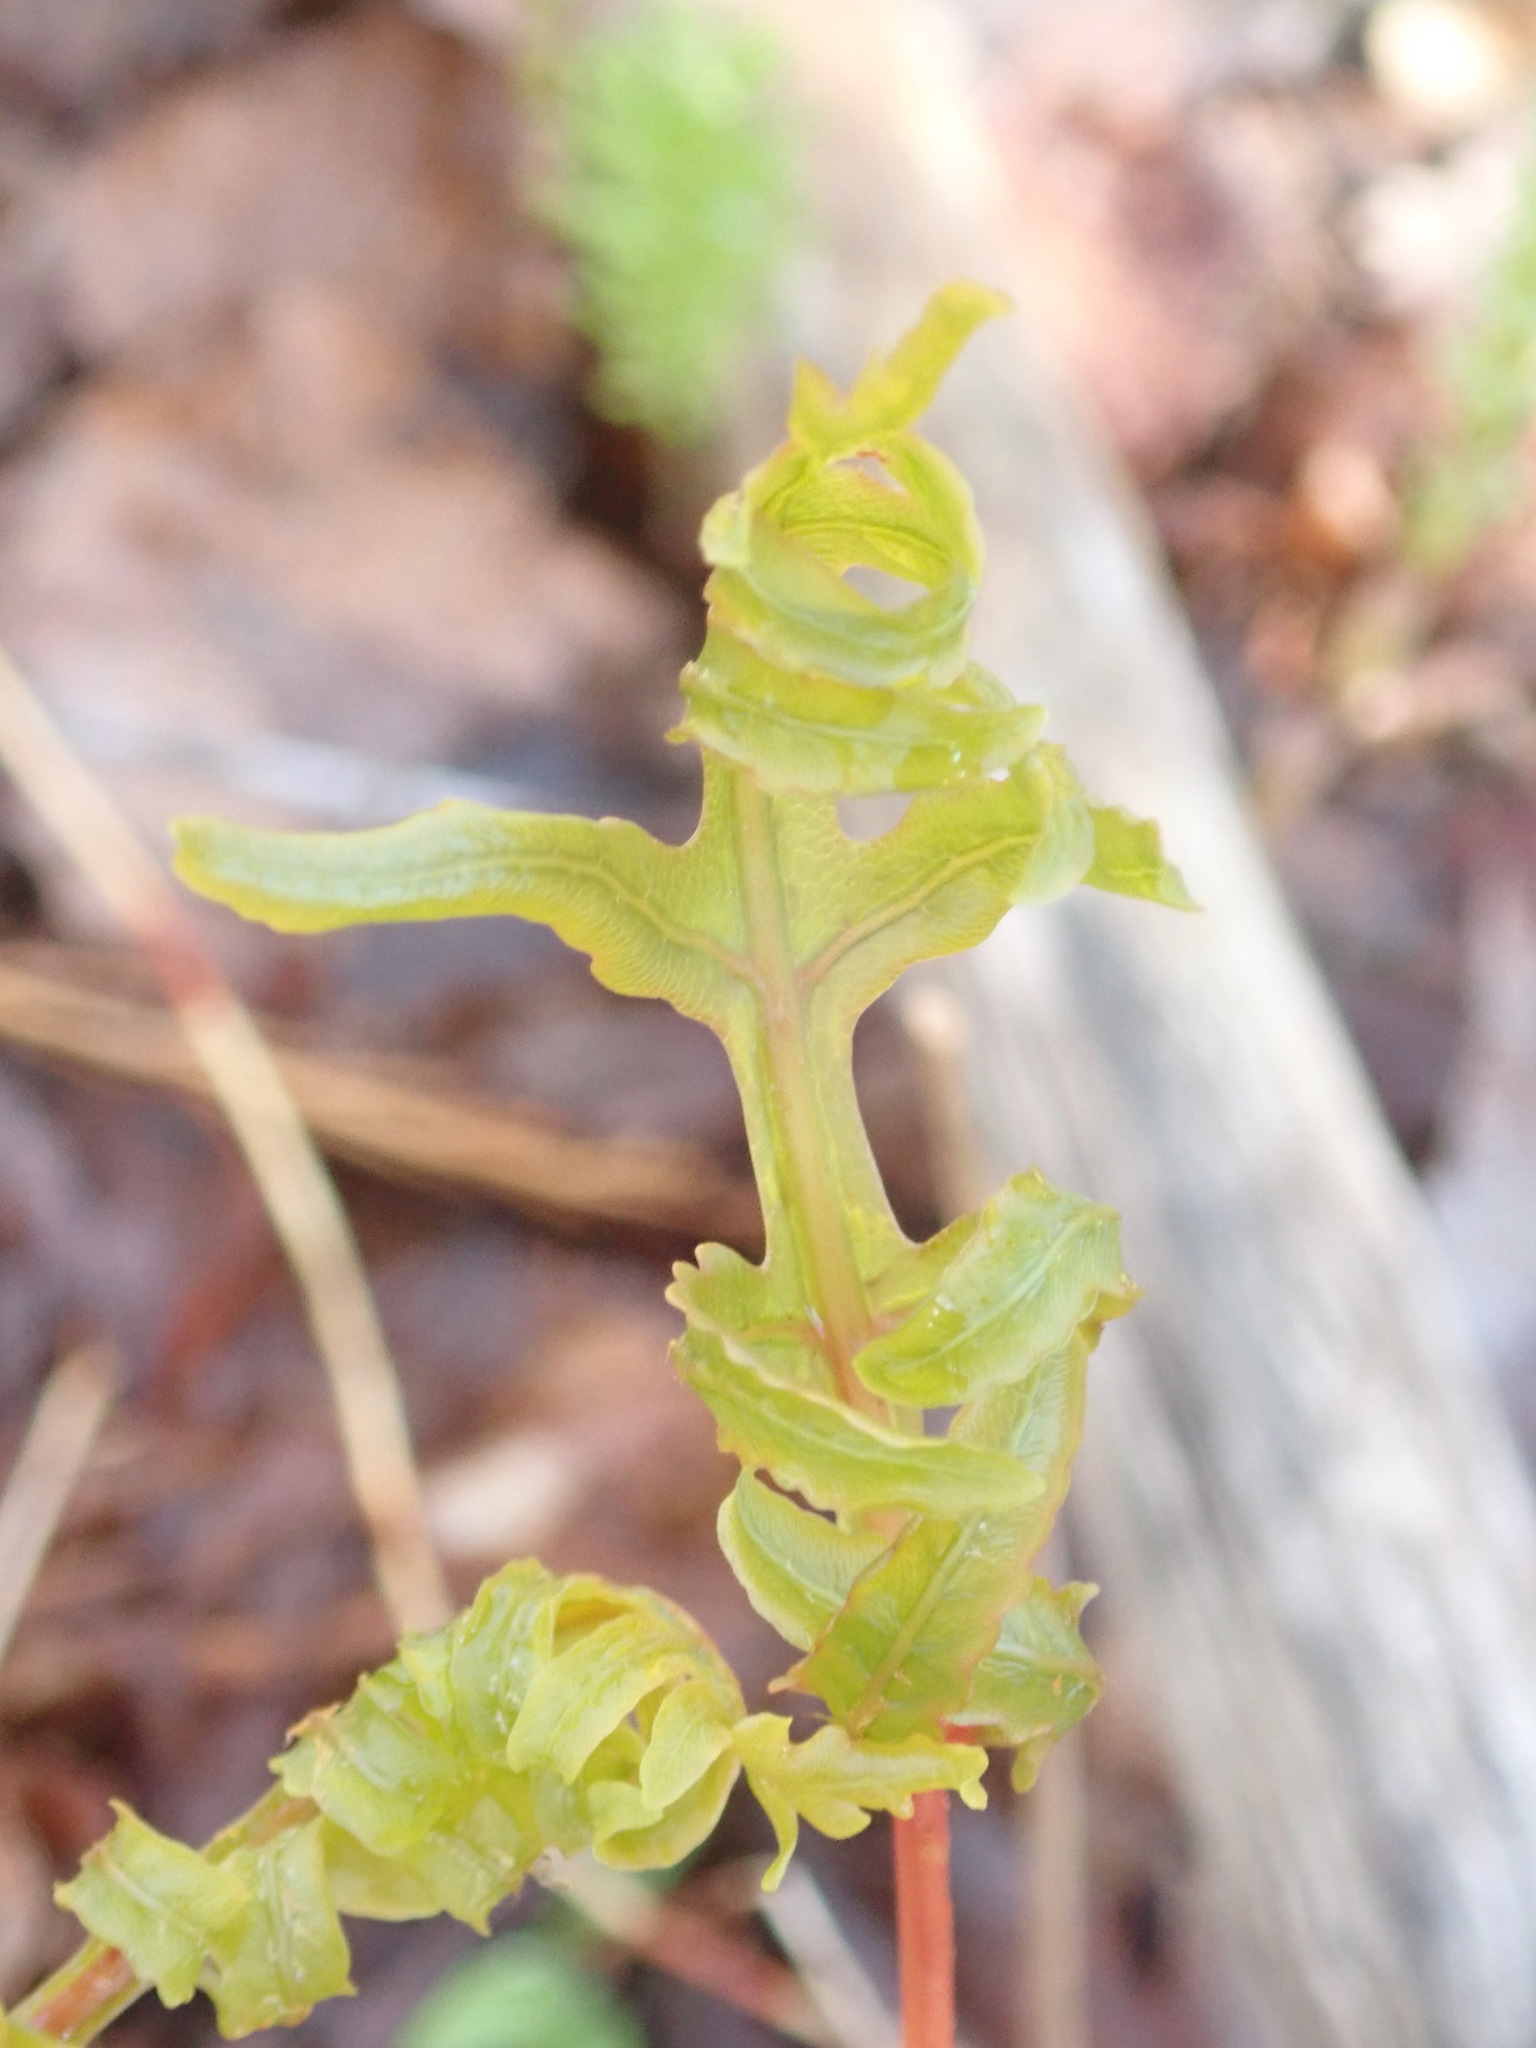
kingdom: Plantae
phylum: Tracheophyta
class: Polypodiopsida
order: Polypodiales
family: Onocleaceae
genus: Onoclea
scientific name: Onoclea sensibilis
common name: Sensitive fern
